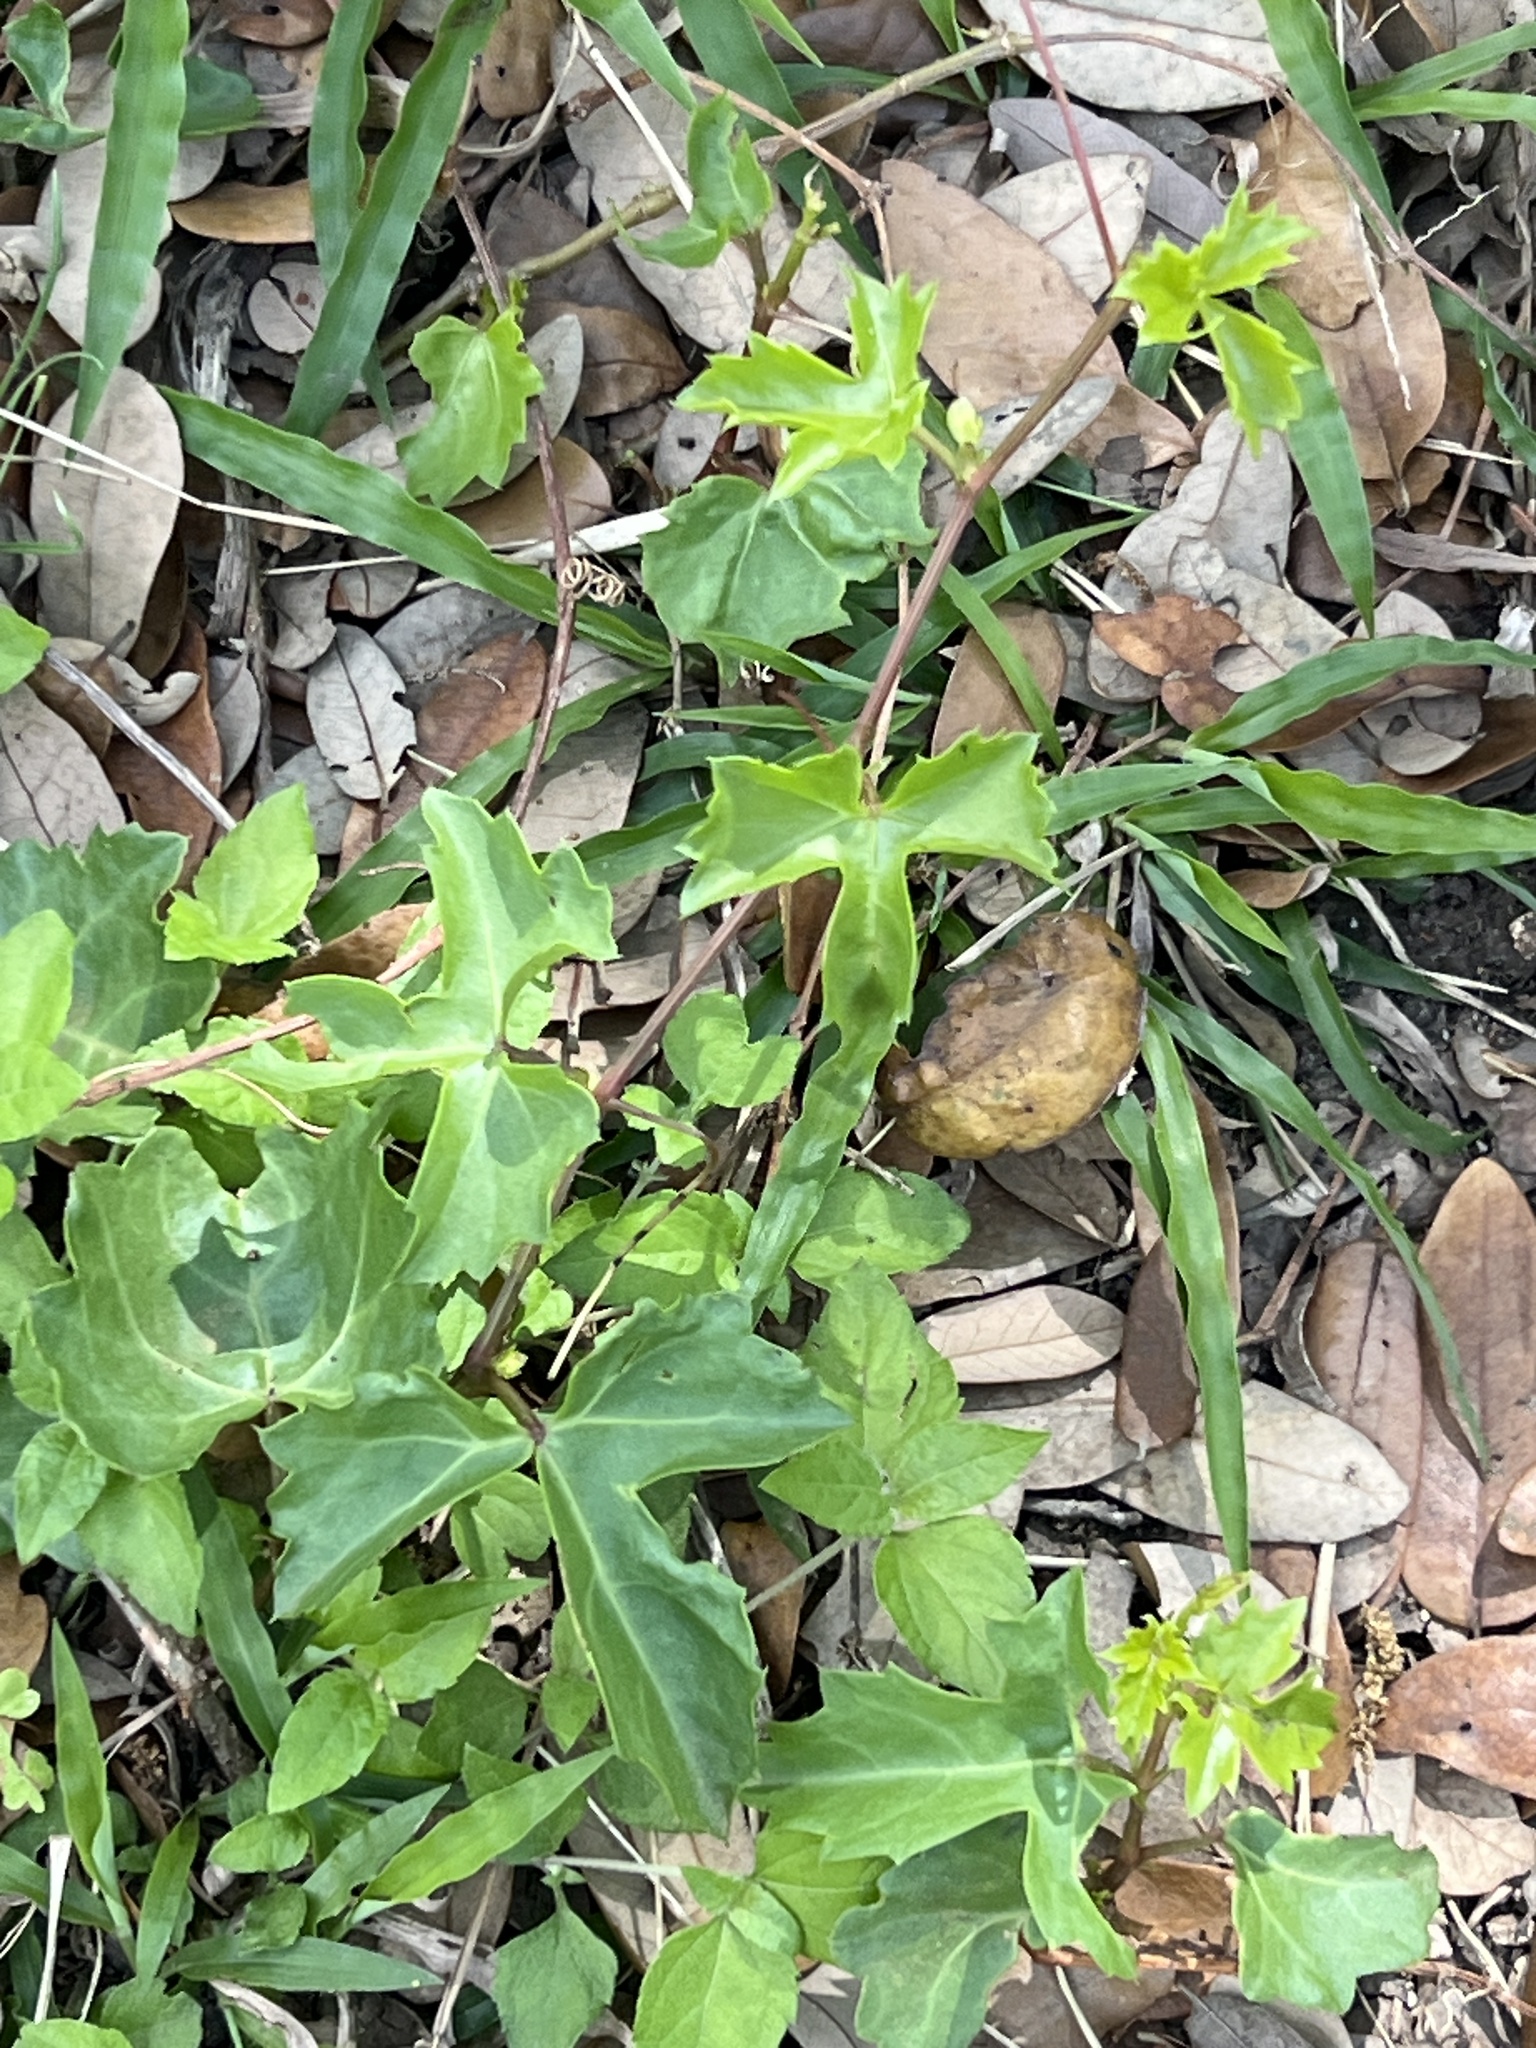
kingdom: Plantae
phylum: Tracheophyta
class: Magnoliopsida
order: Vitales
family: Vitaceae
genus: Cissus
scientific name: Cissus trifoliata
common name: Vine-sorrel
